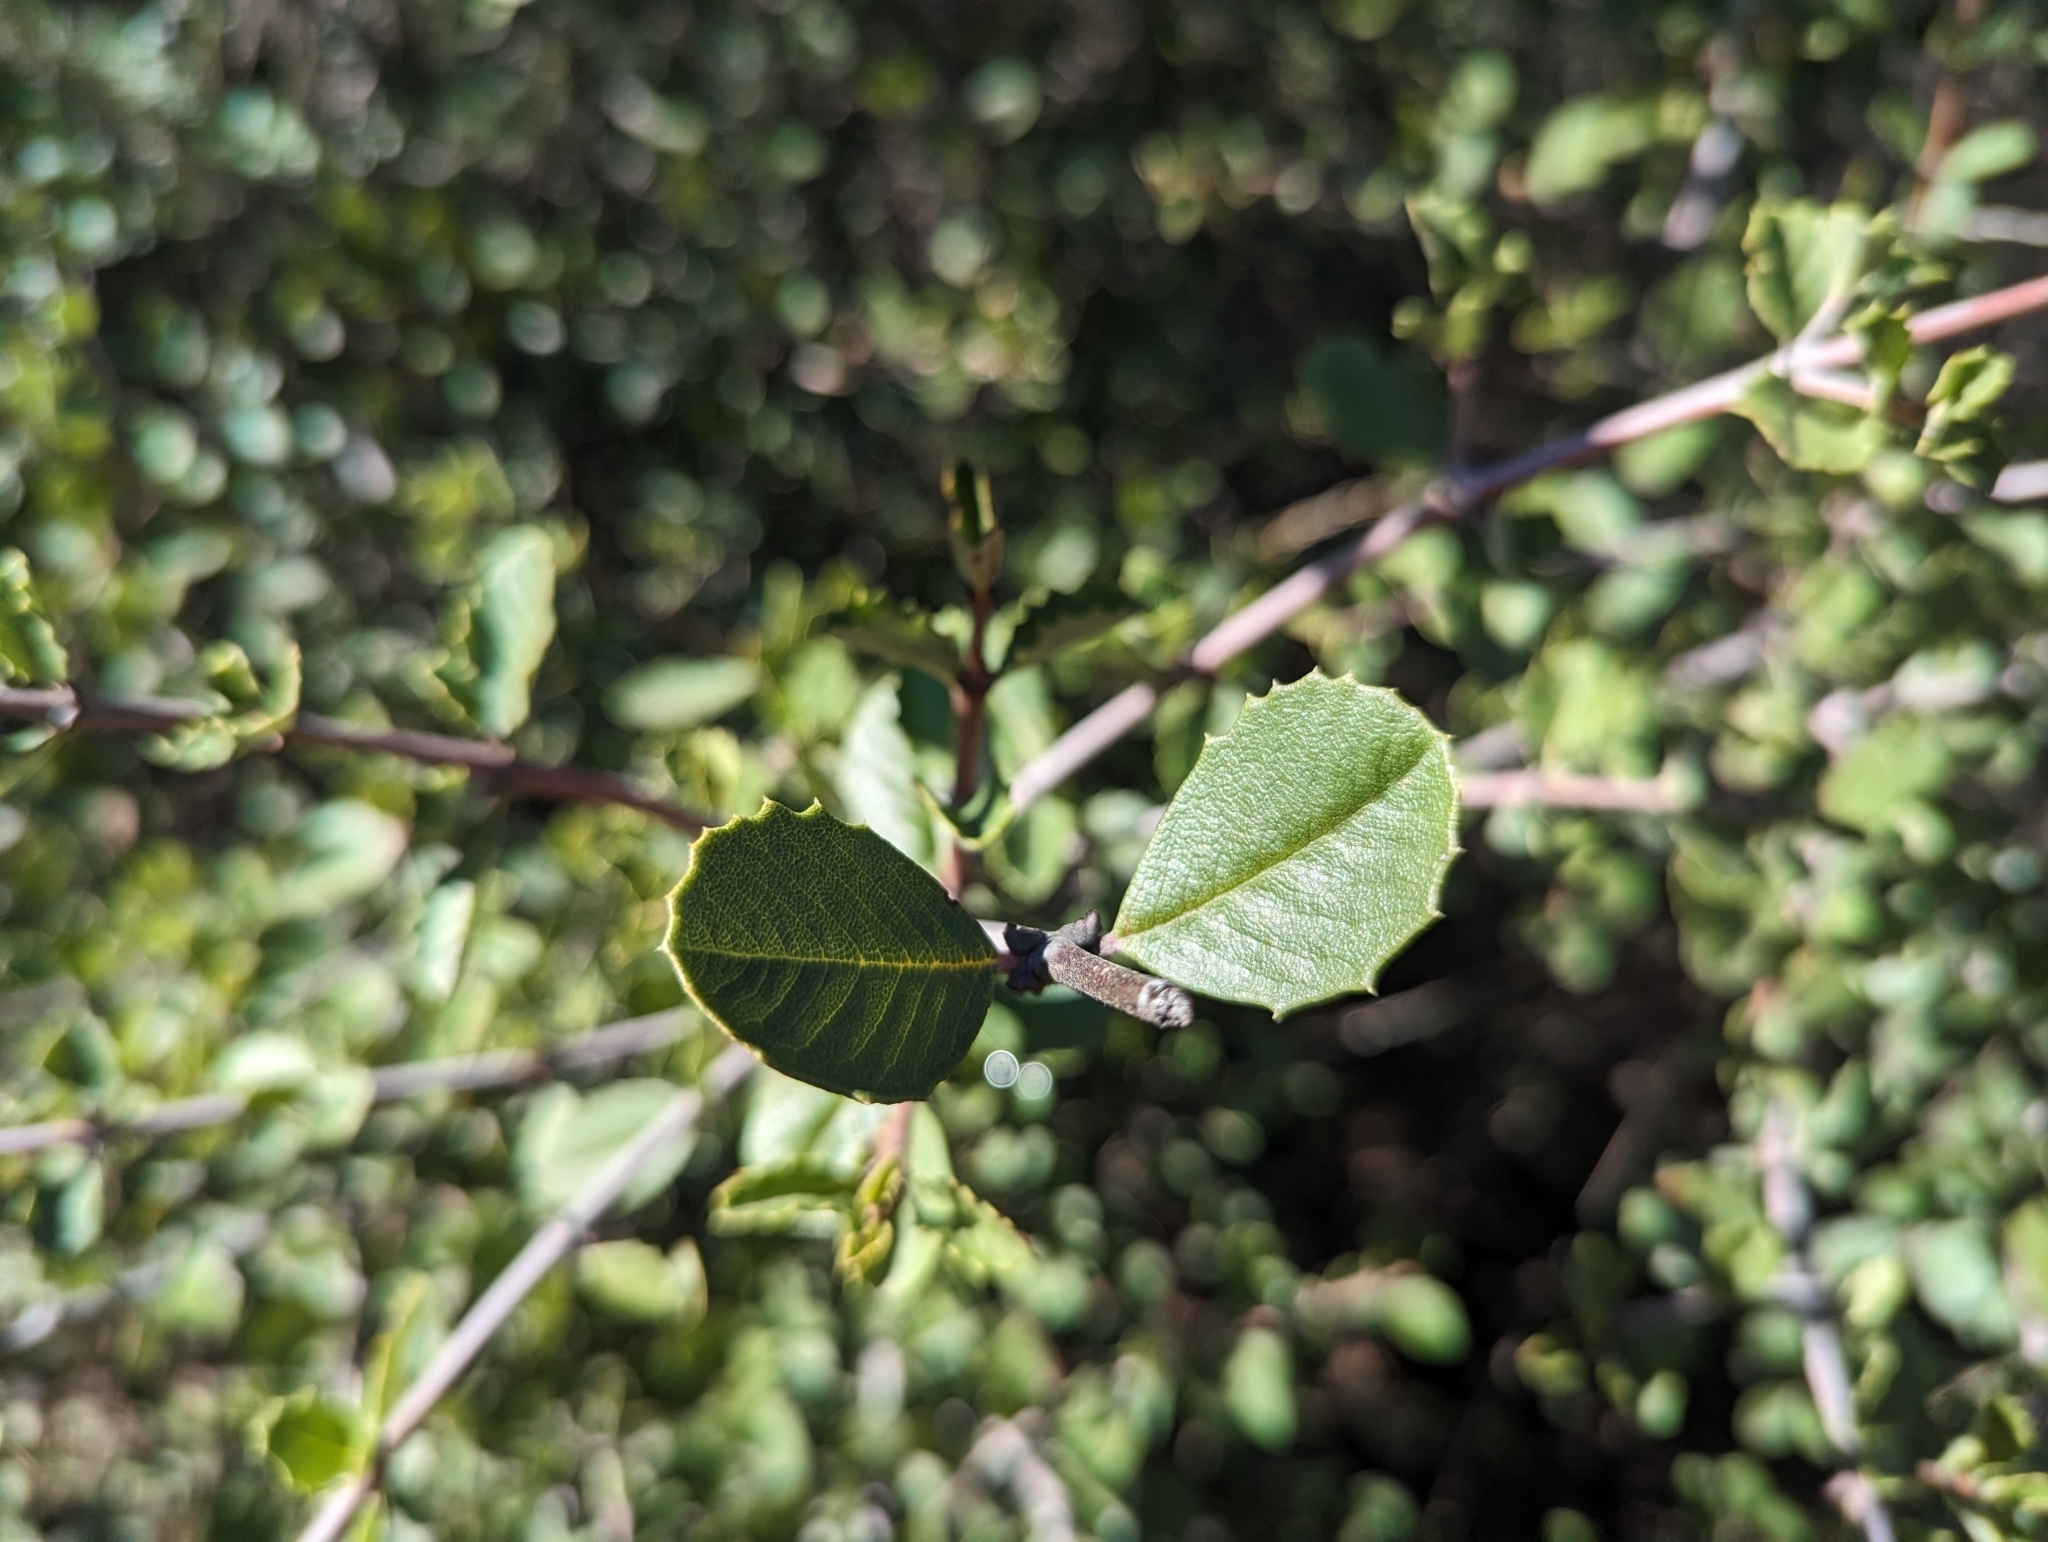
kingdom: Plantae
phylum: Tracheophyta
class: Magnoliopsida
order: Rosales
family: Rhamnaceae
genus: Ceanothus
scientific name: Ceanothus ferrisiae
